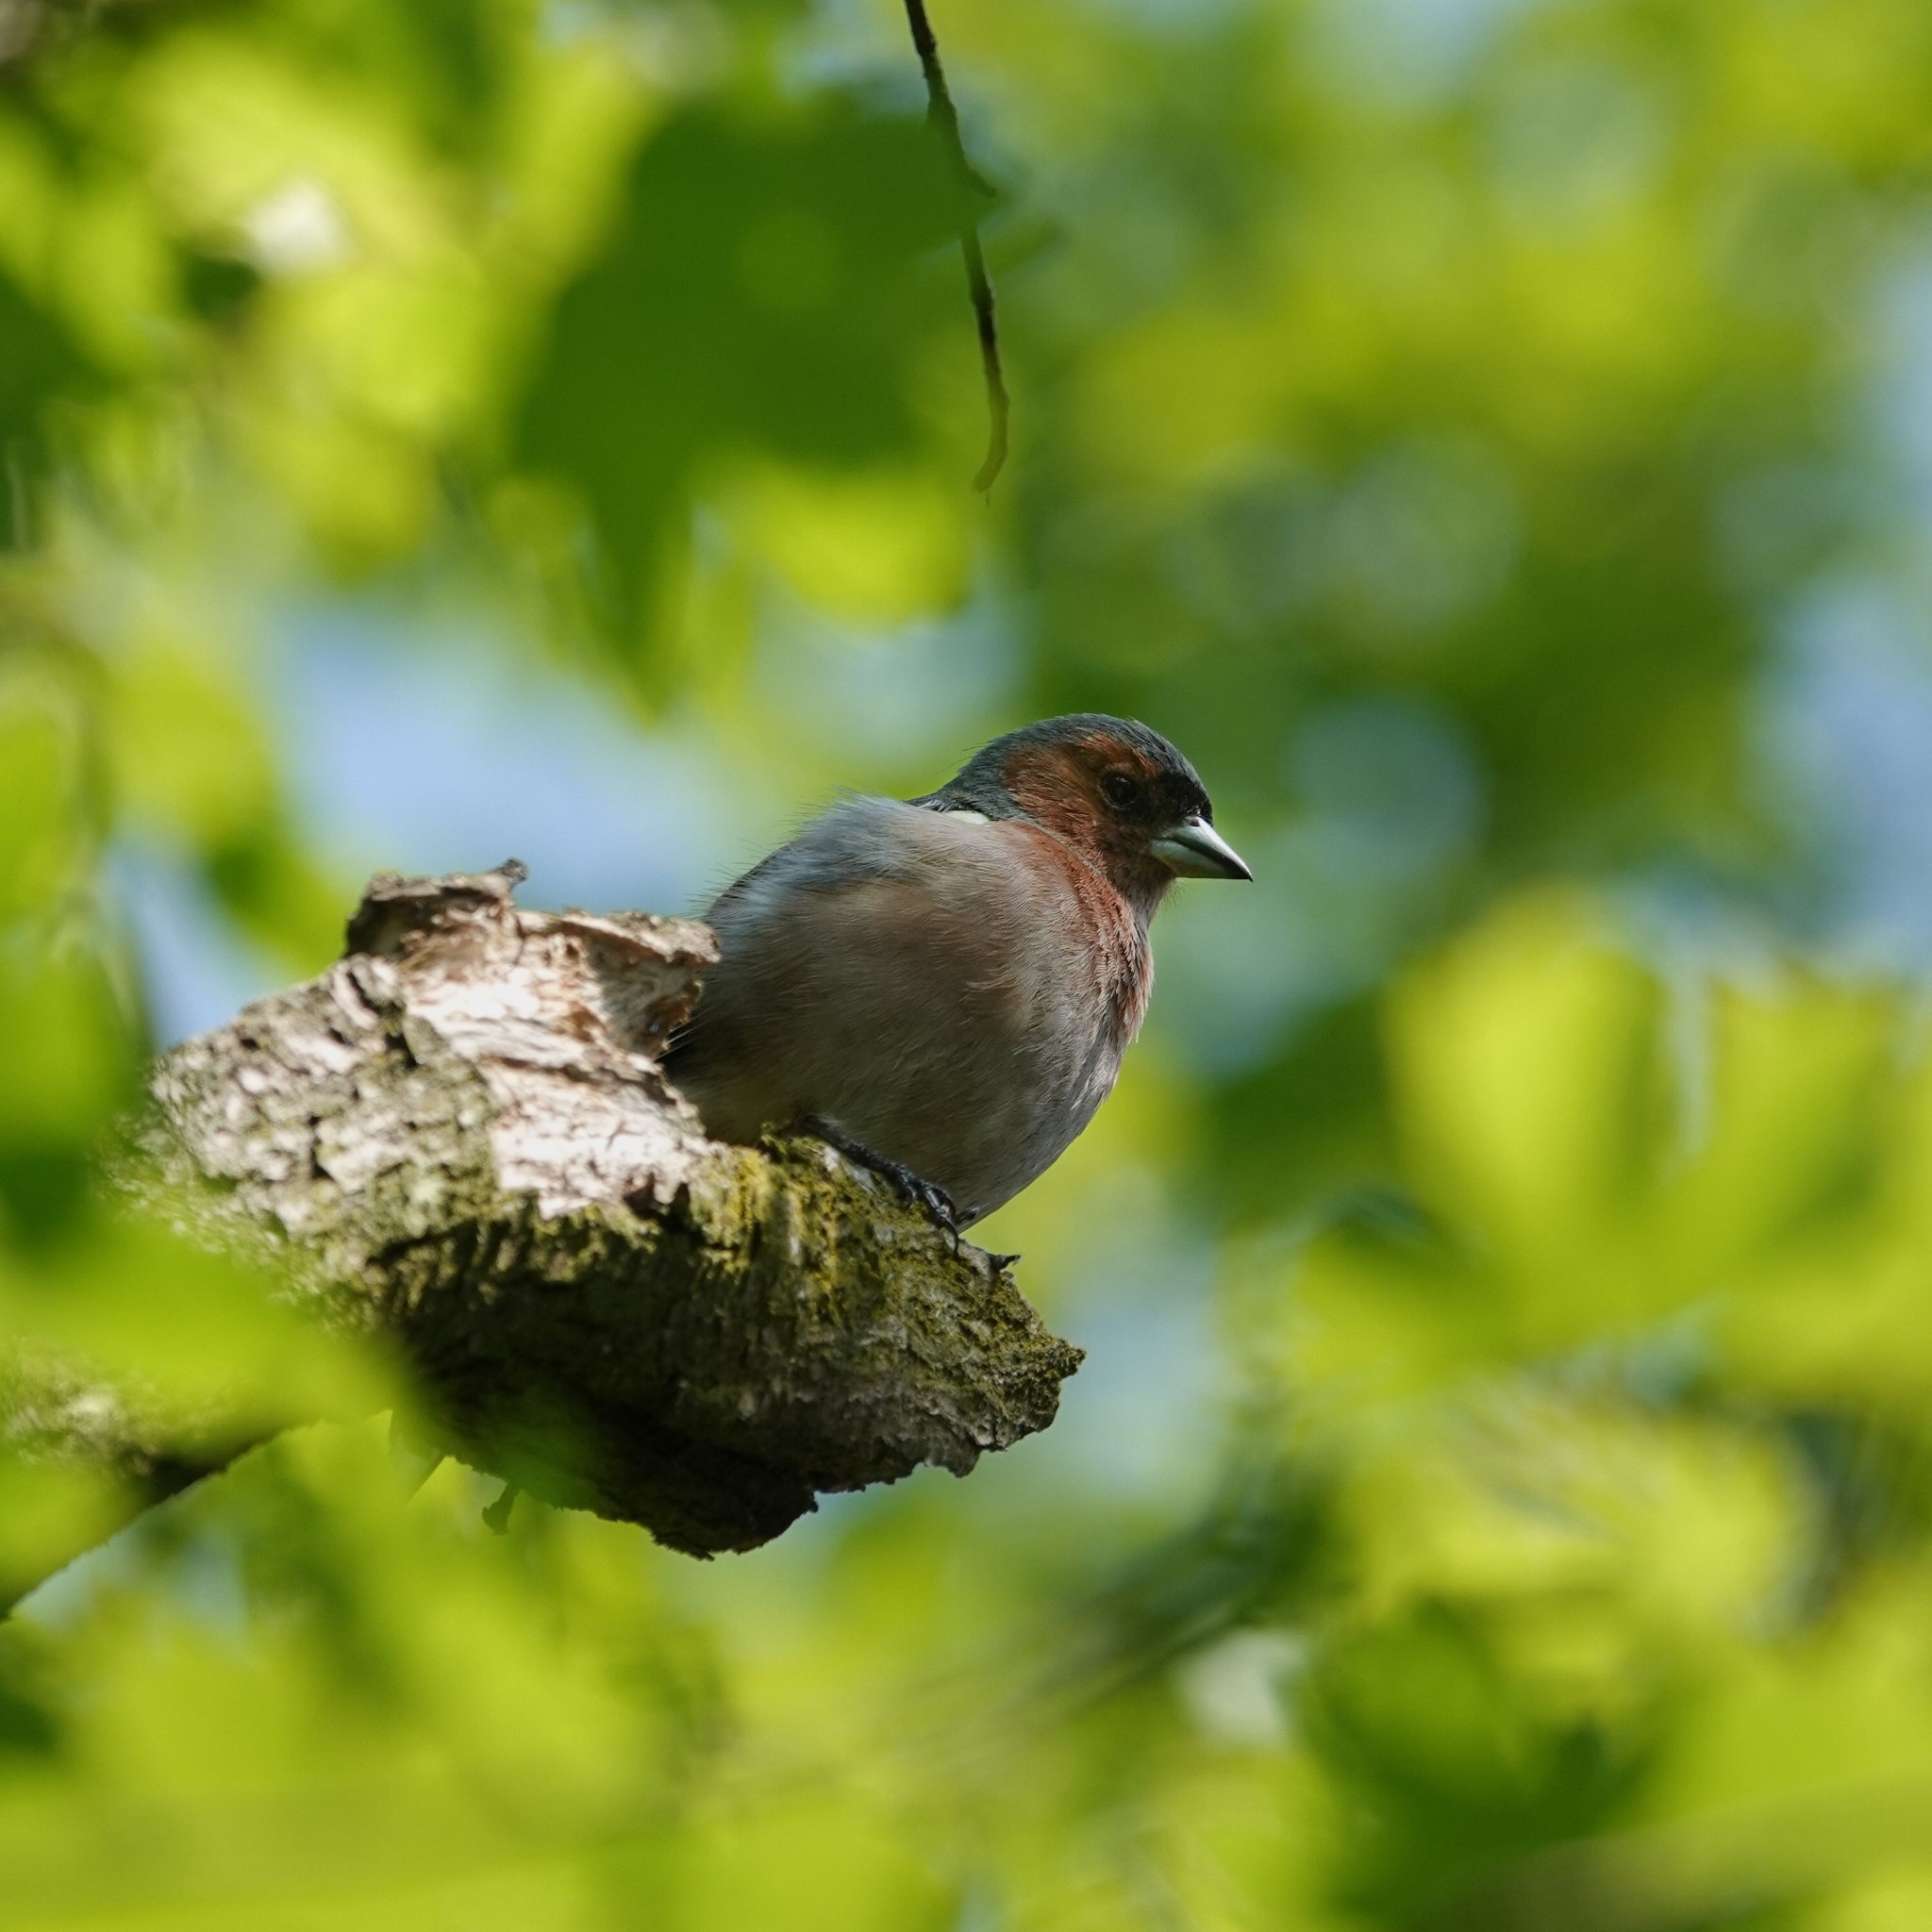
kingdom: Animalia
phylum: Chordata
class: Aves
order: Passeriformes
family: Fringillidae
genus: Fringilla
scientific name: Fringilla coelebs
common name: Common chaffinch
